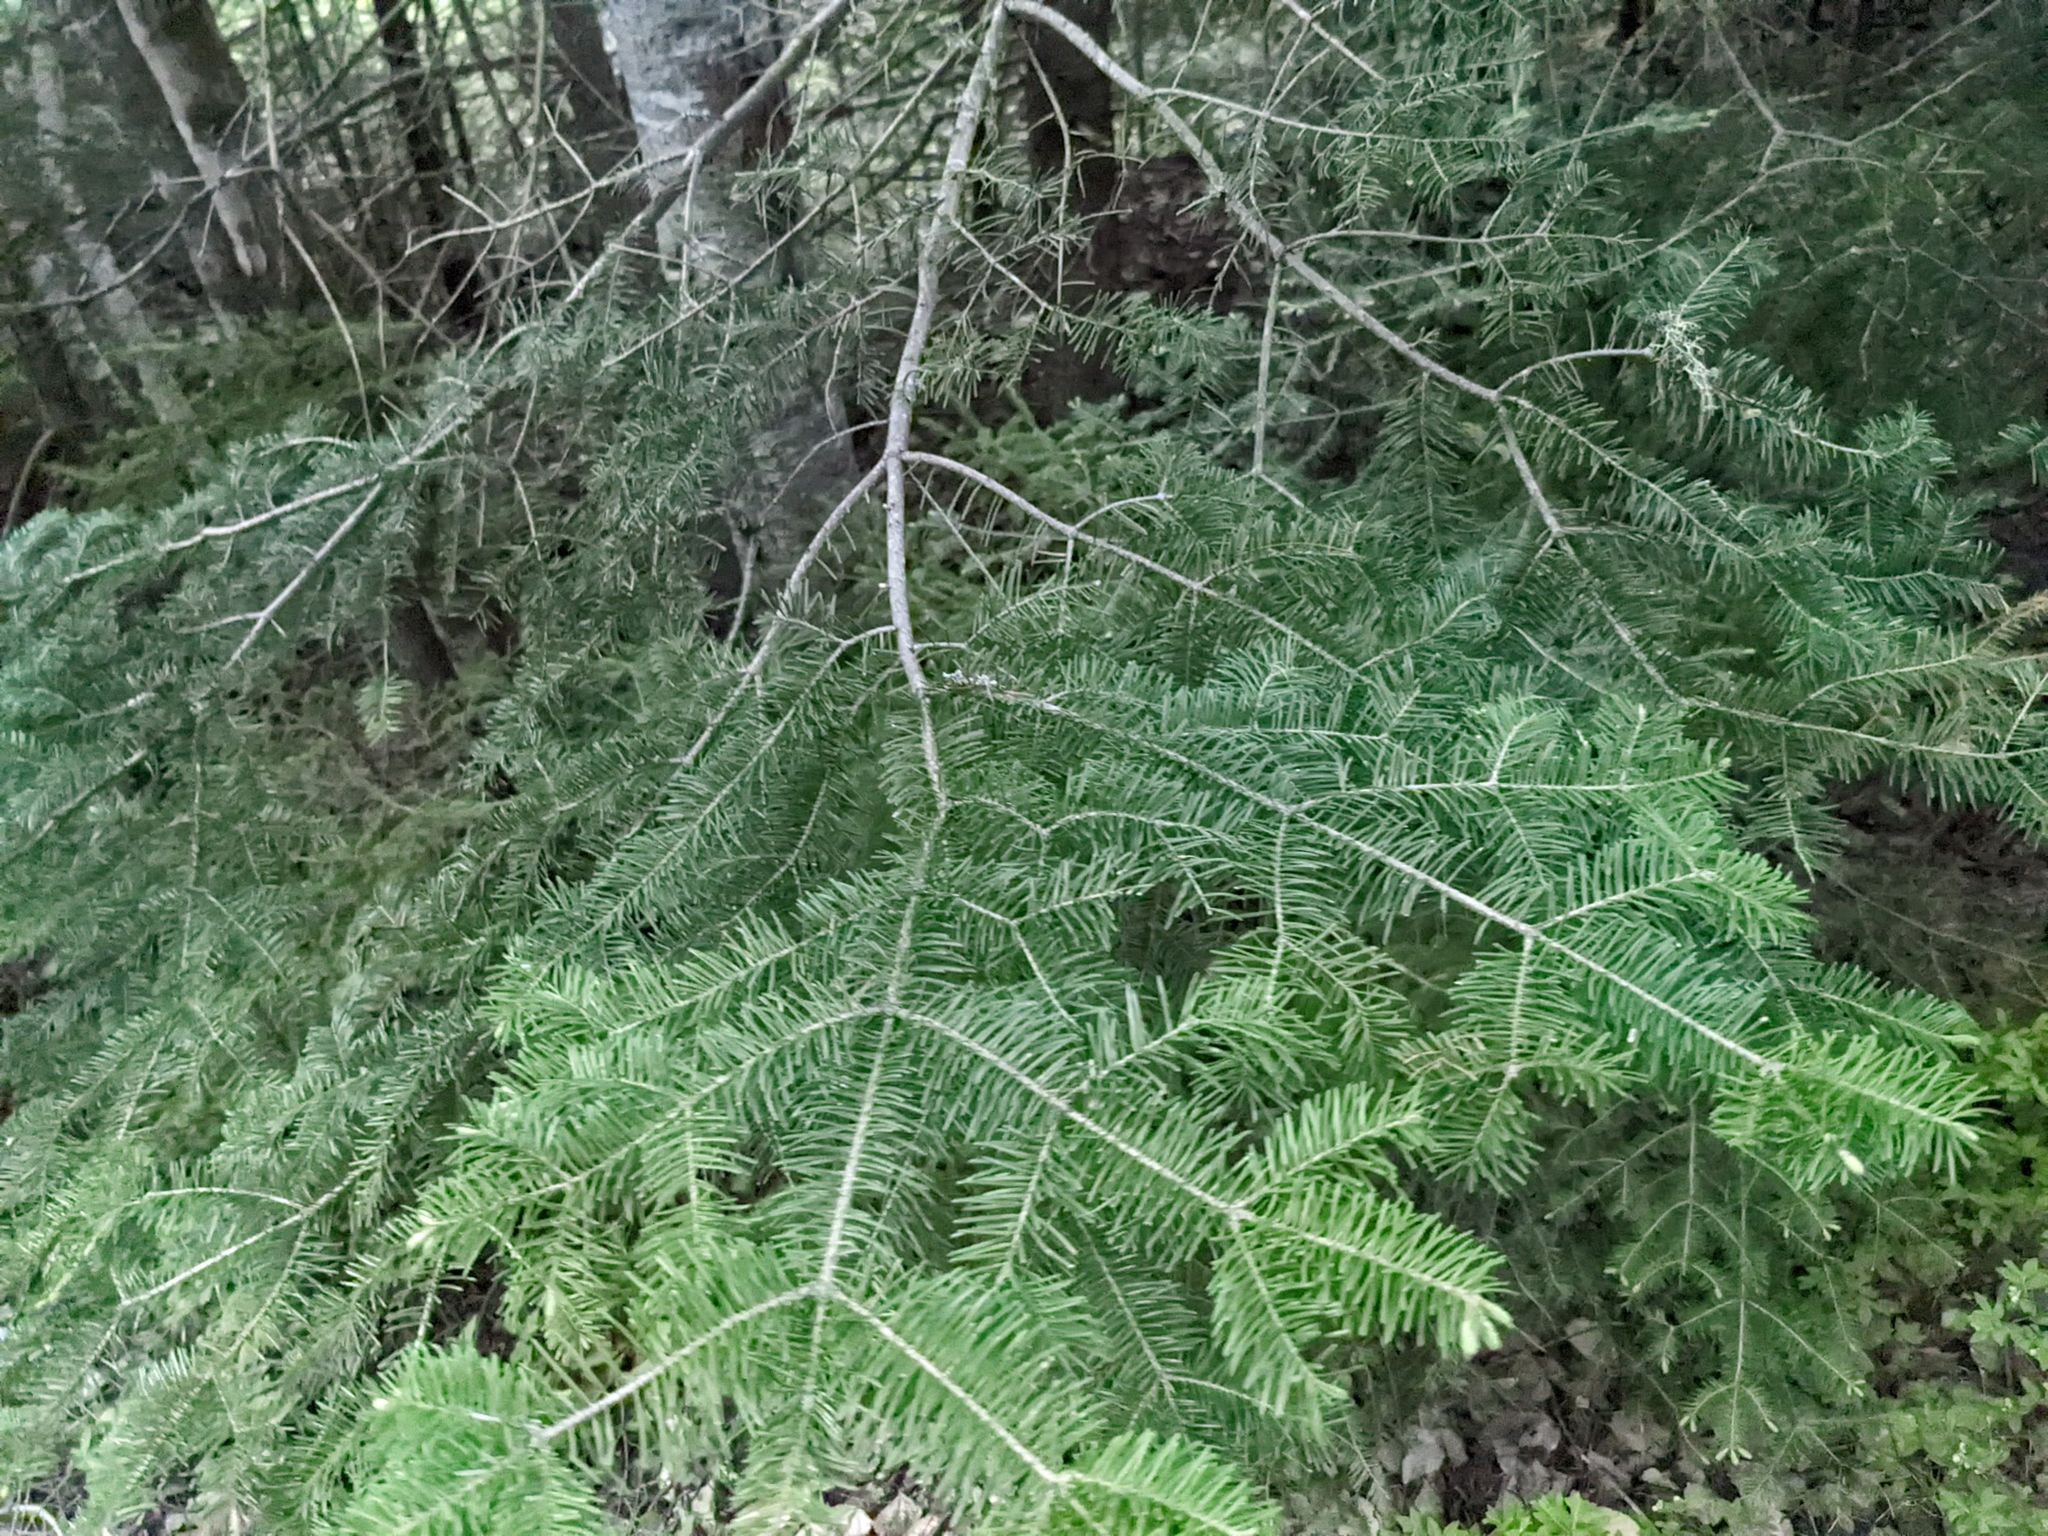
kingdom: Plantae
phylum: Tracheophyta
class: Pinopsida
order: Pinales
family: Pinaceae
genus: Abies
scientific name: Abies balsamea
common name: Balsam fir
